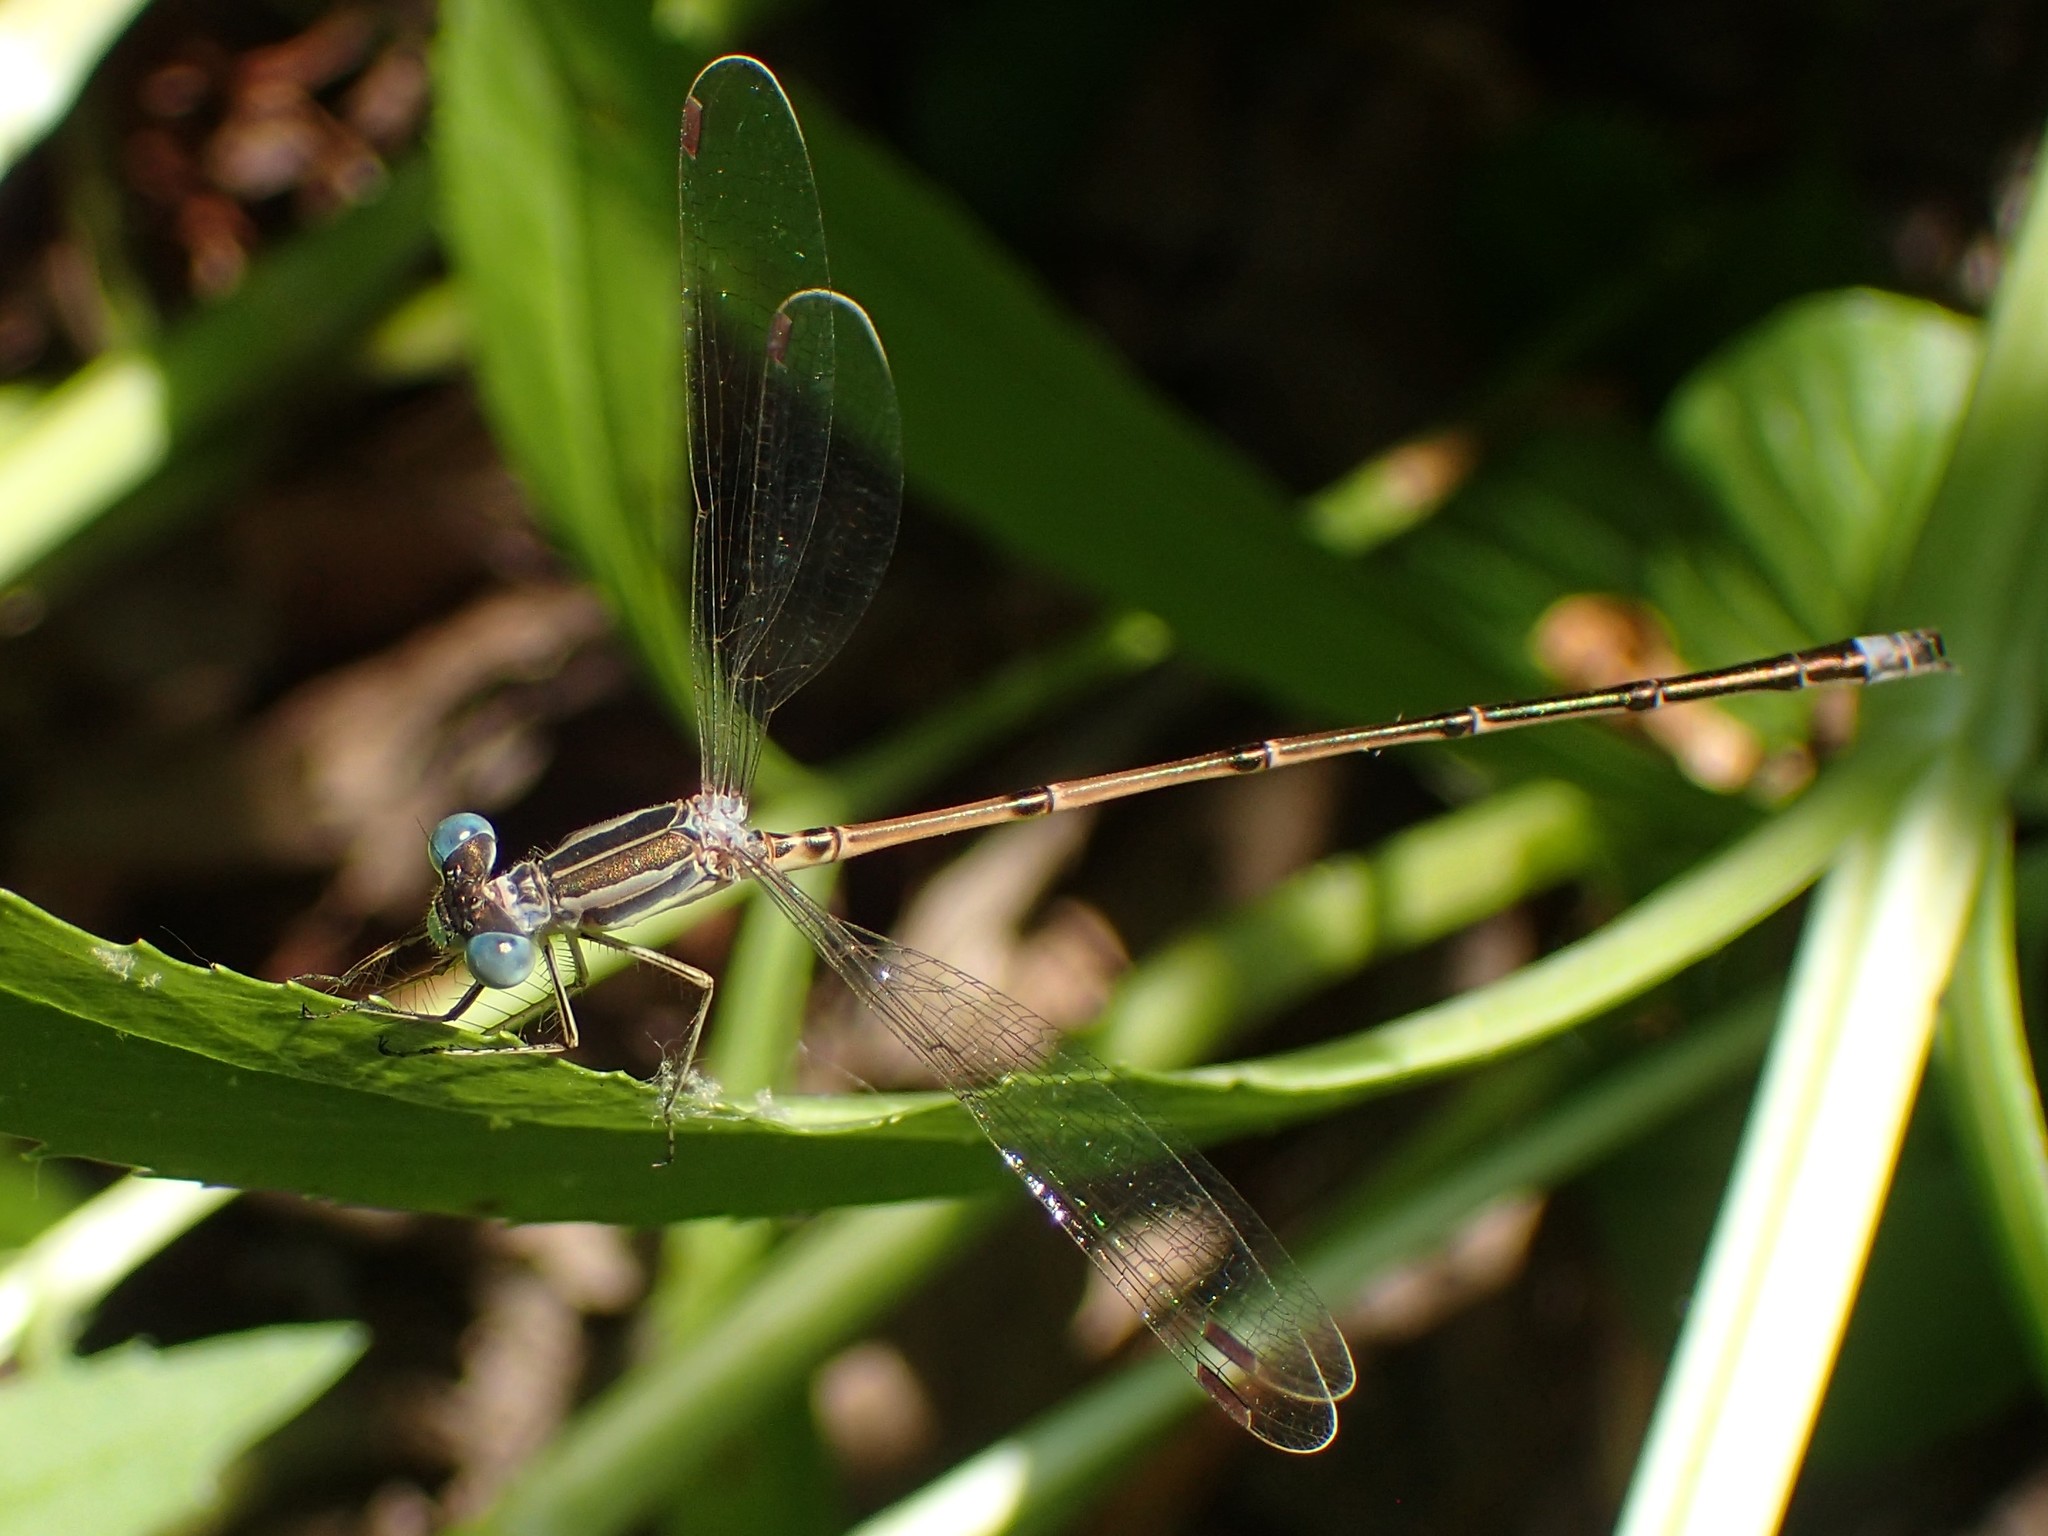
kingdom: Animalia
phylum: Arthropoda
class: Insecta
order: Odonata
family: Lestidae
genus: Lestes
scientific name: Lestes rectangularis
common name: Slender spreadwing
